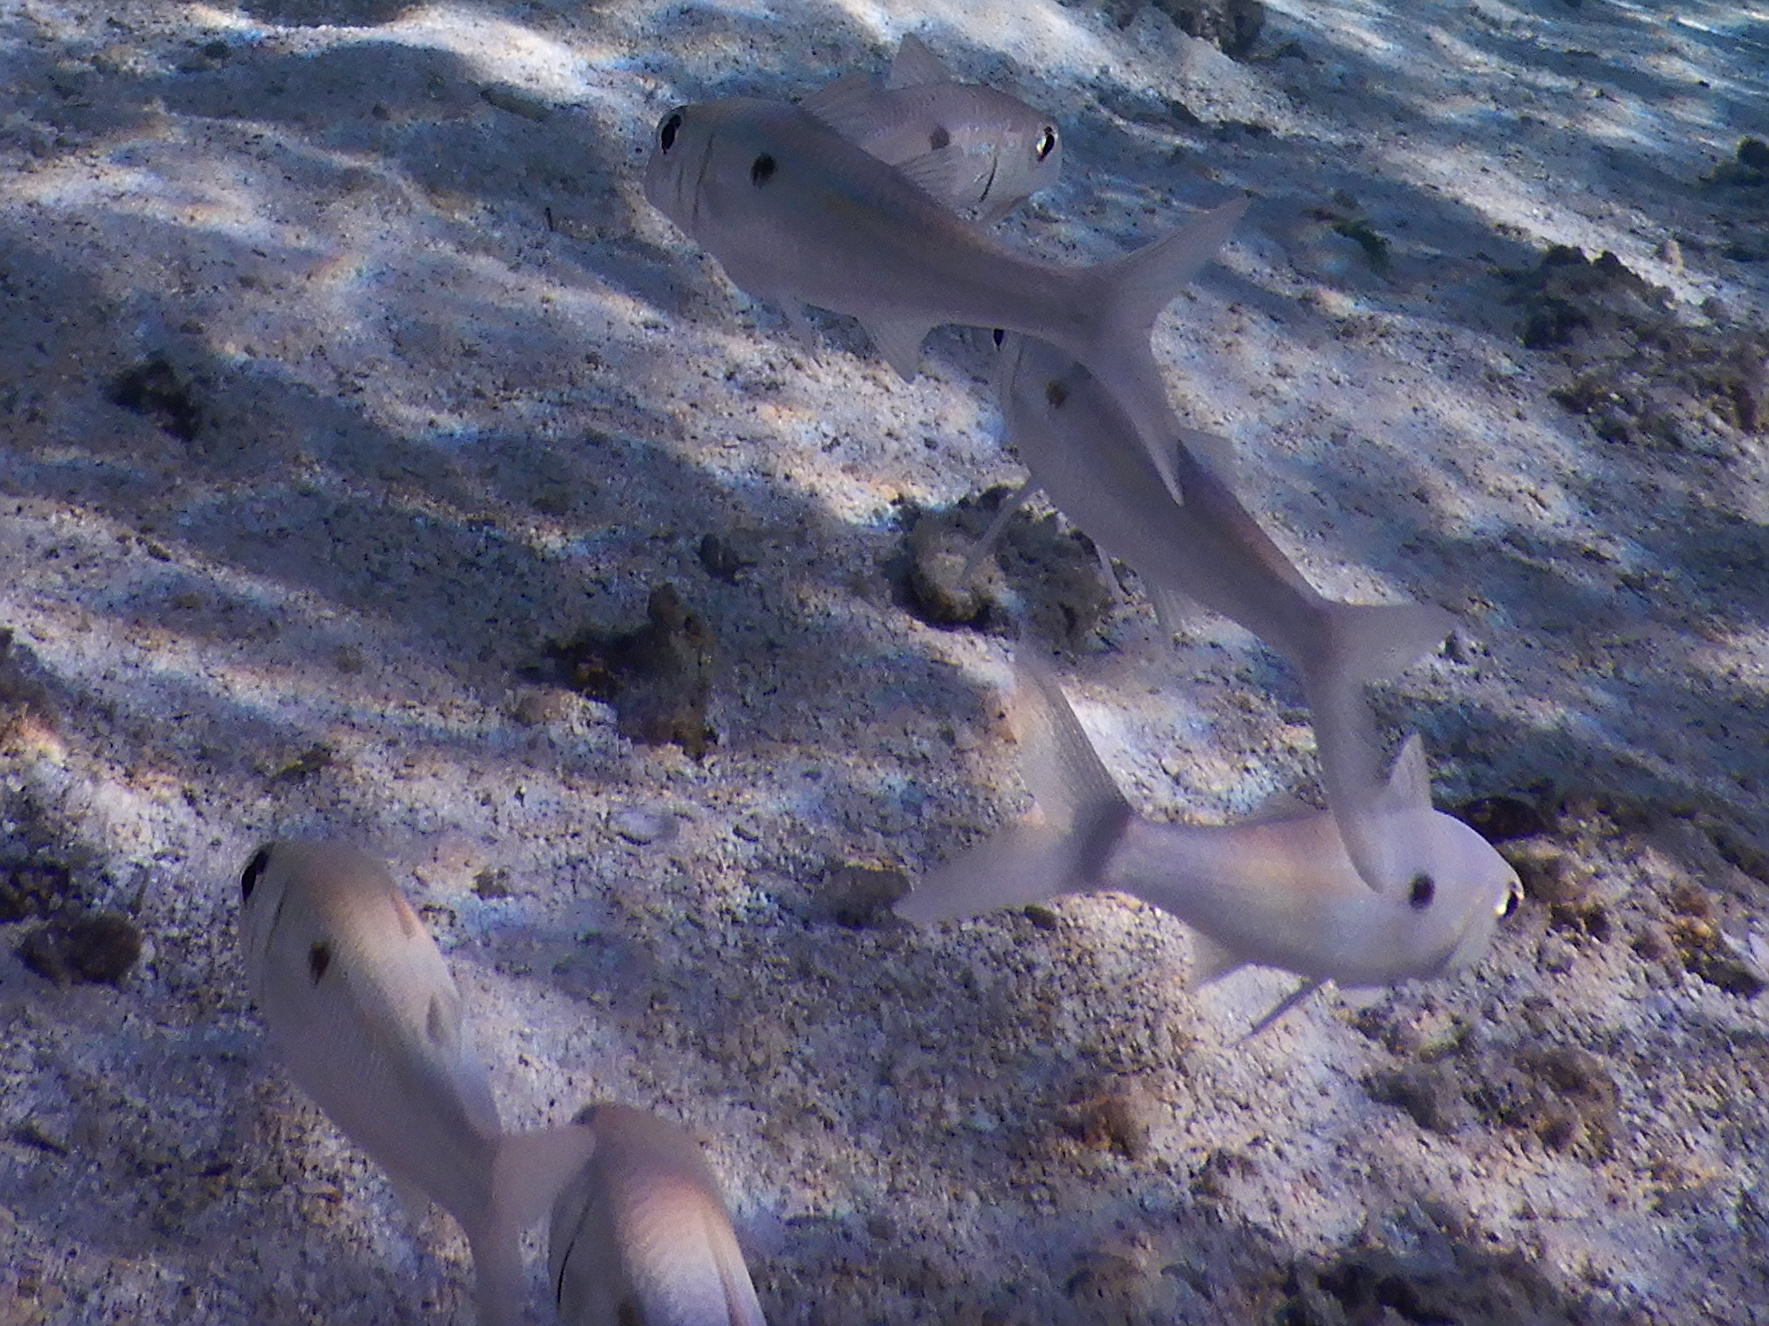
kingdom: Animalia
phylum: Chordata
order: Perciformes
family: Mullidae
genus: Mulloidichthys
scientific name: Mulloidichthys flavolineatus
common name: Yellowstripe goatfish
